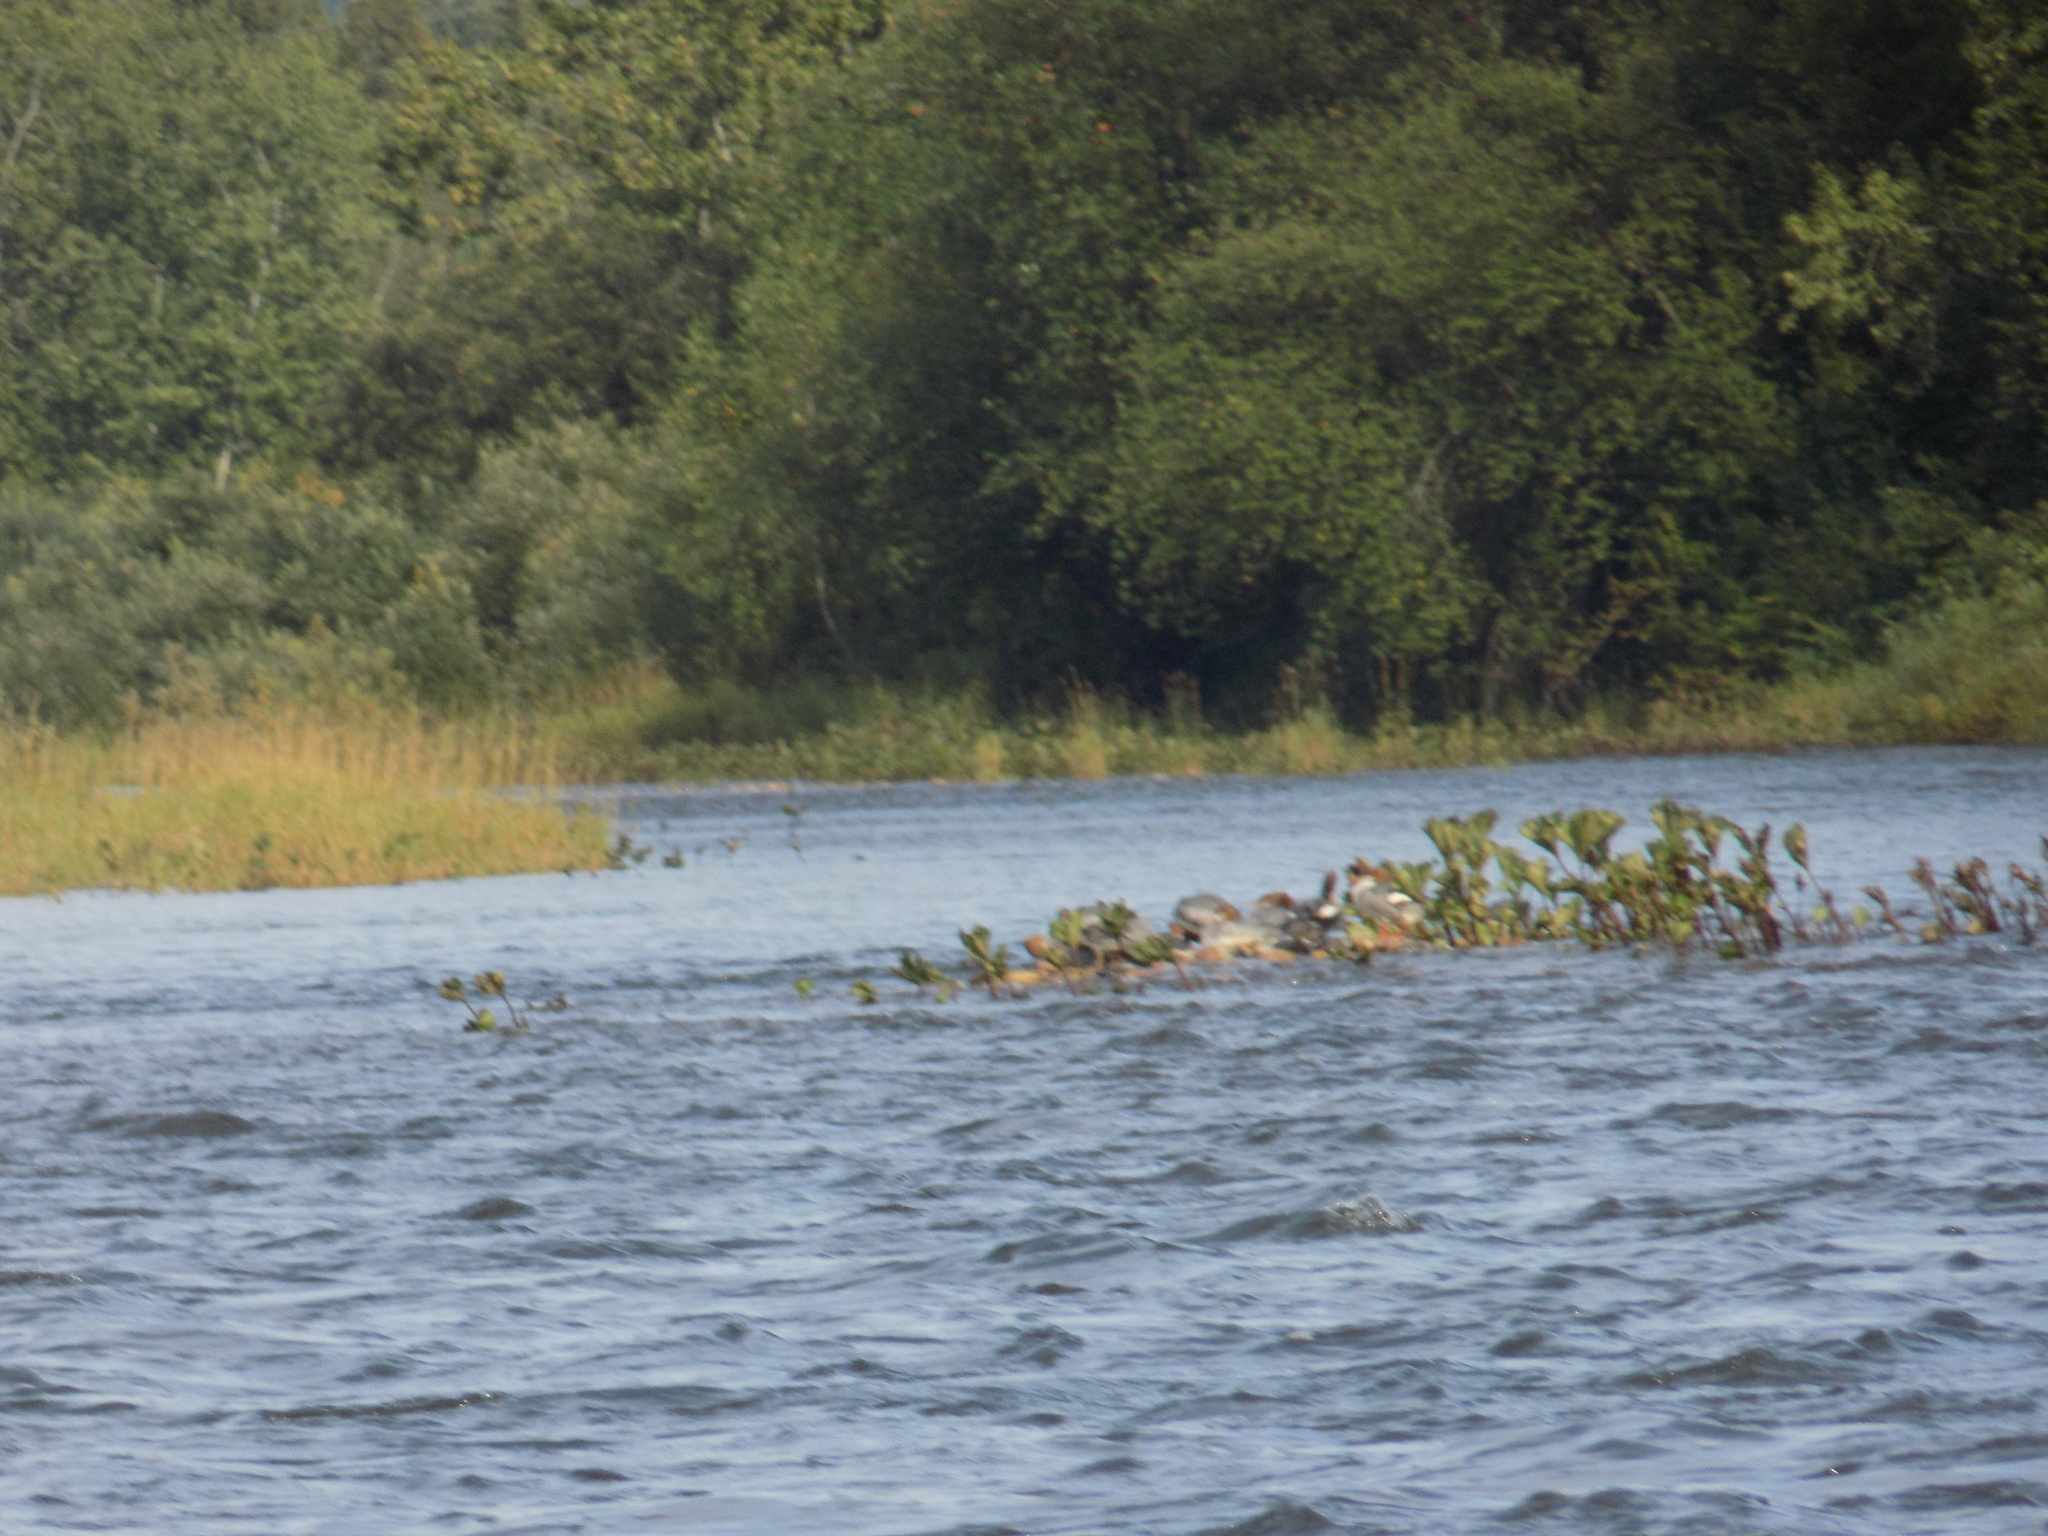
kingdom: Animalia
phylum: Chordata
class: Aves
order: Anseriformes
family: Anatidae
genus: Mergus
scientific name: Mergus merganser
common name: Common merganser
